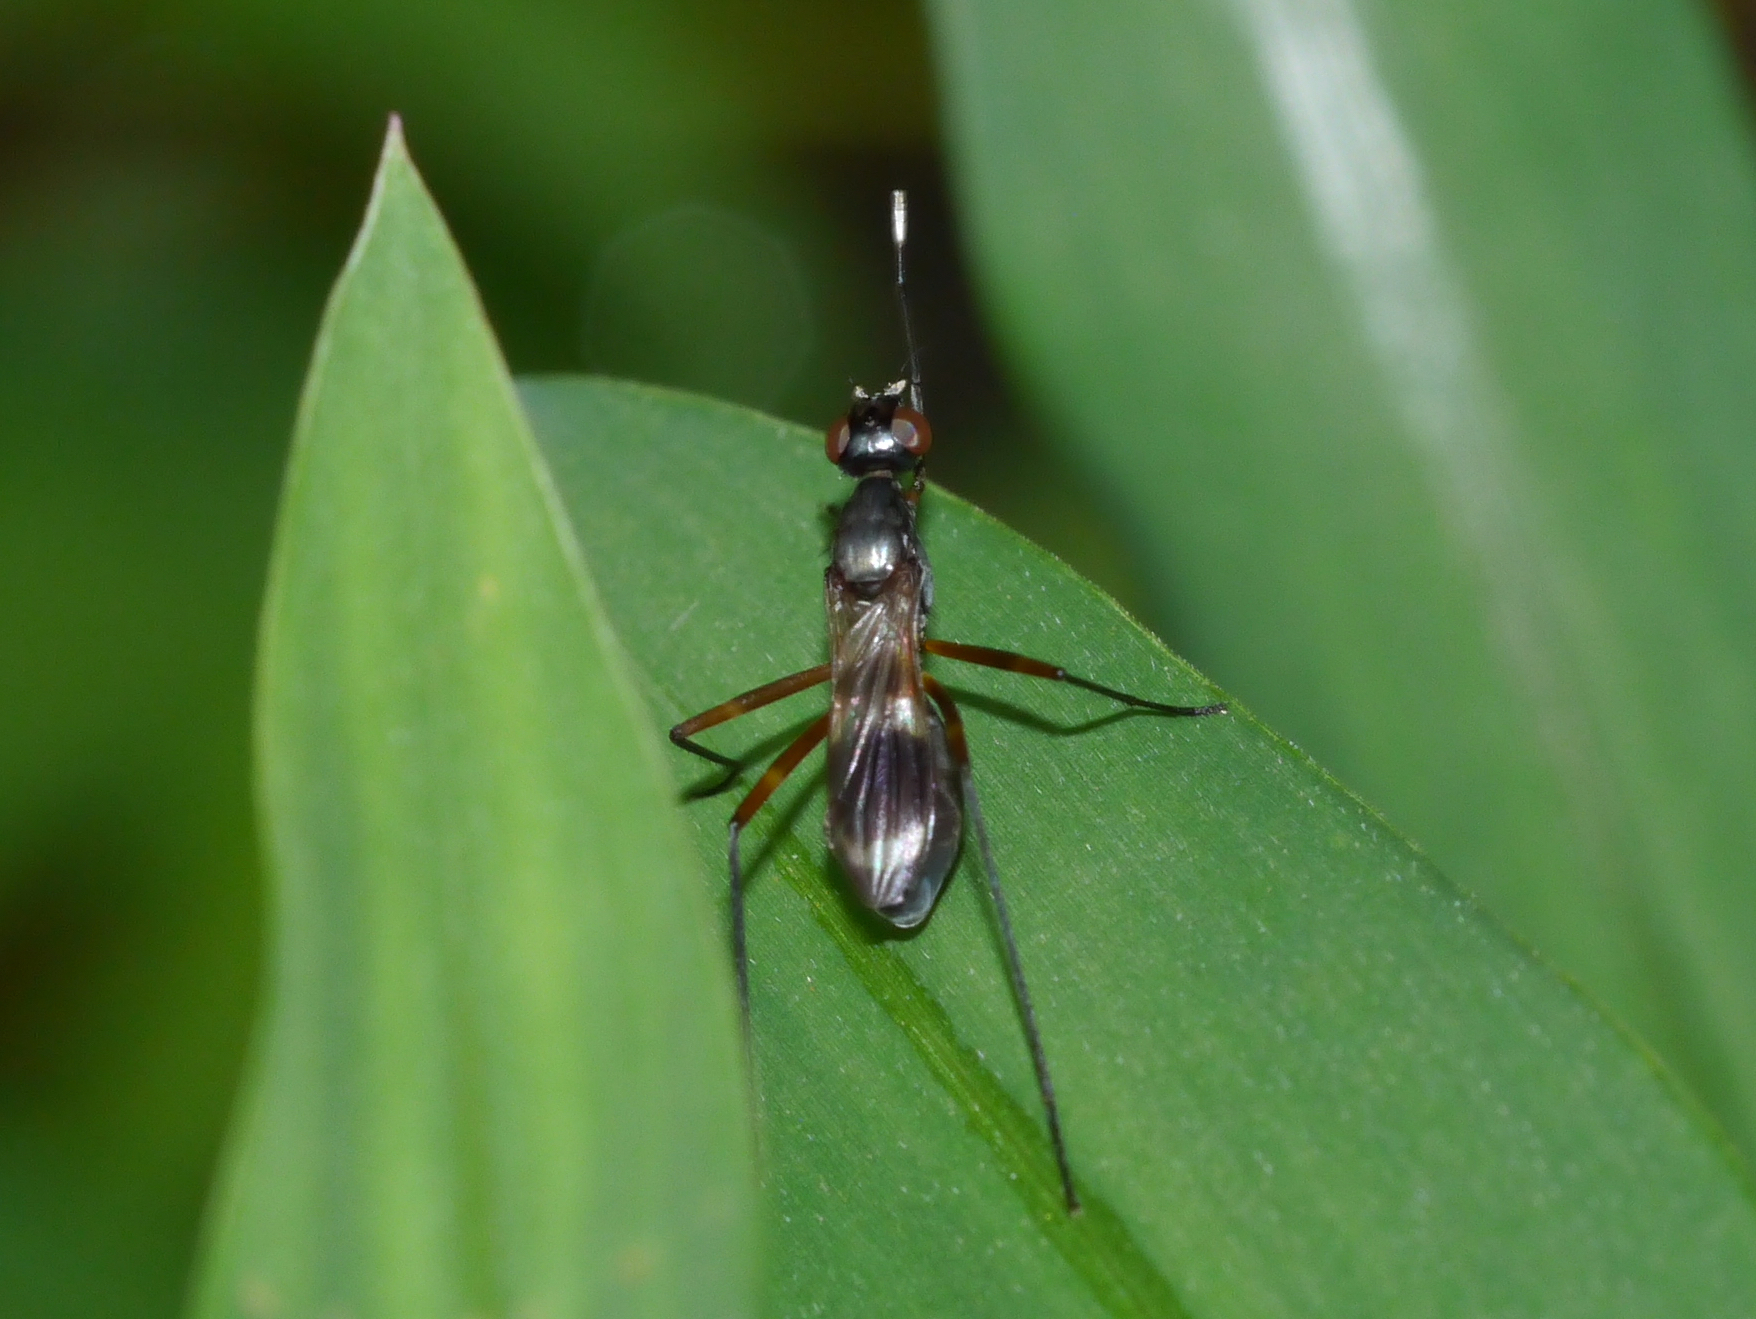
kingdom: Animalia
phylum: Arthropoda
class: Insecta
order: Diptera
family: Micropezidae
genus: Taeniaptera
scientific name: Taeniaptera trivittata
